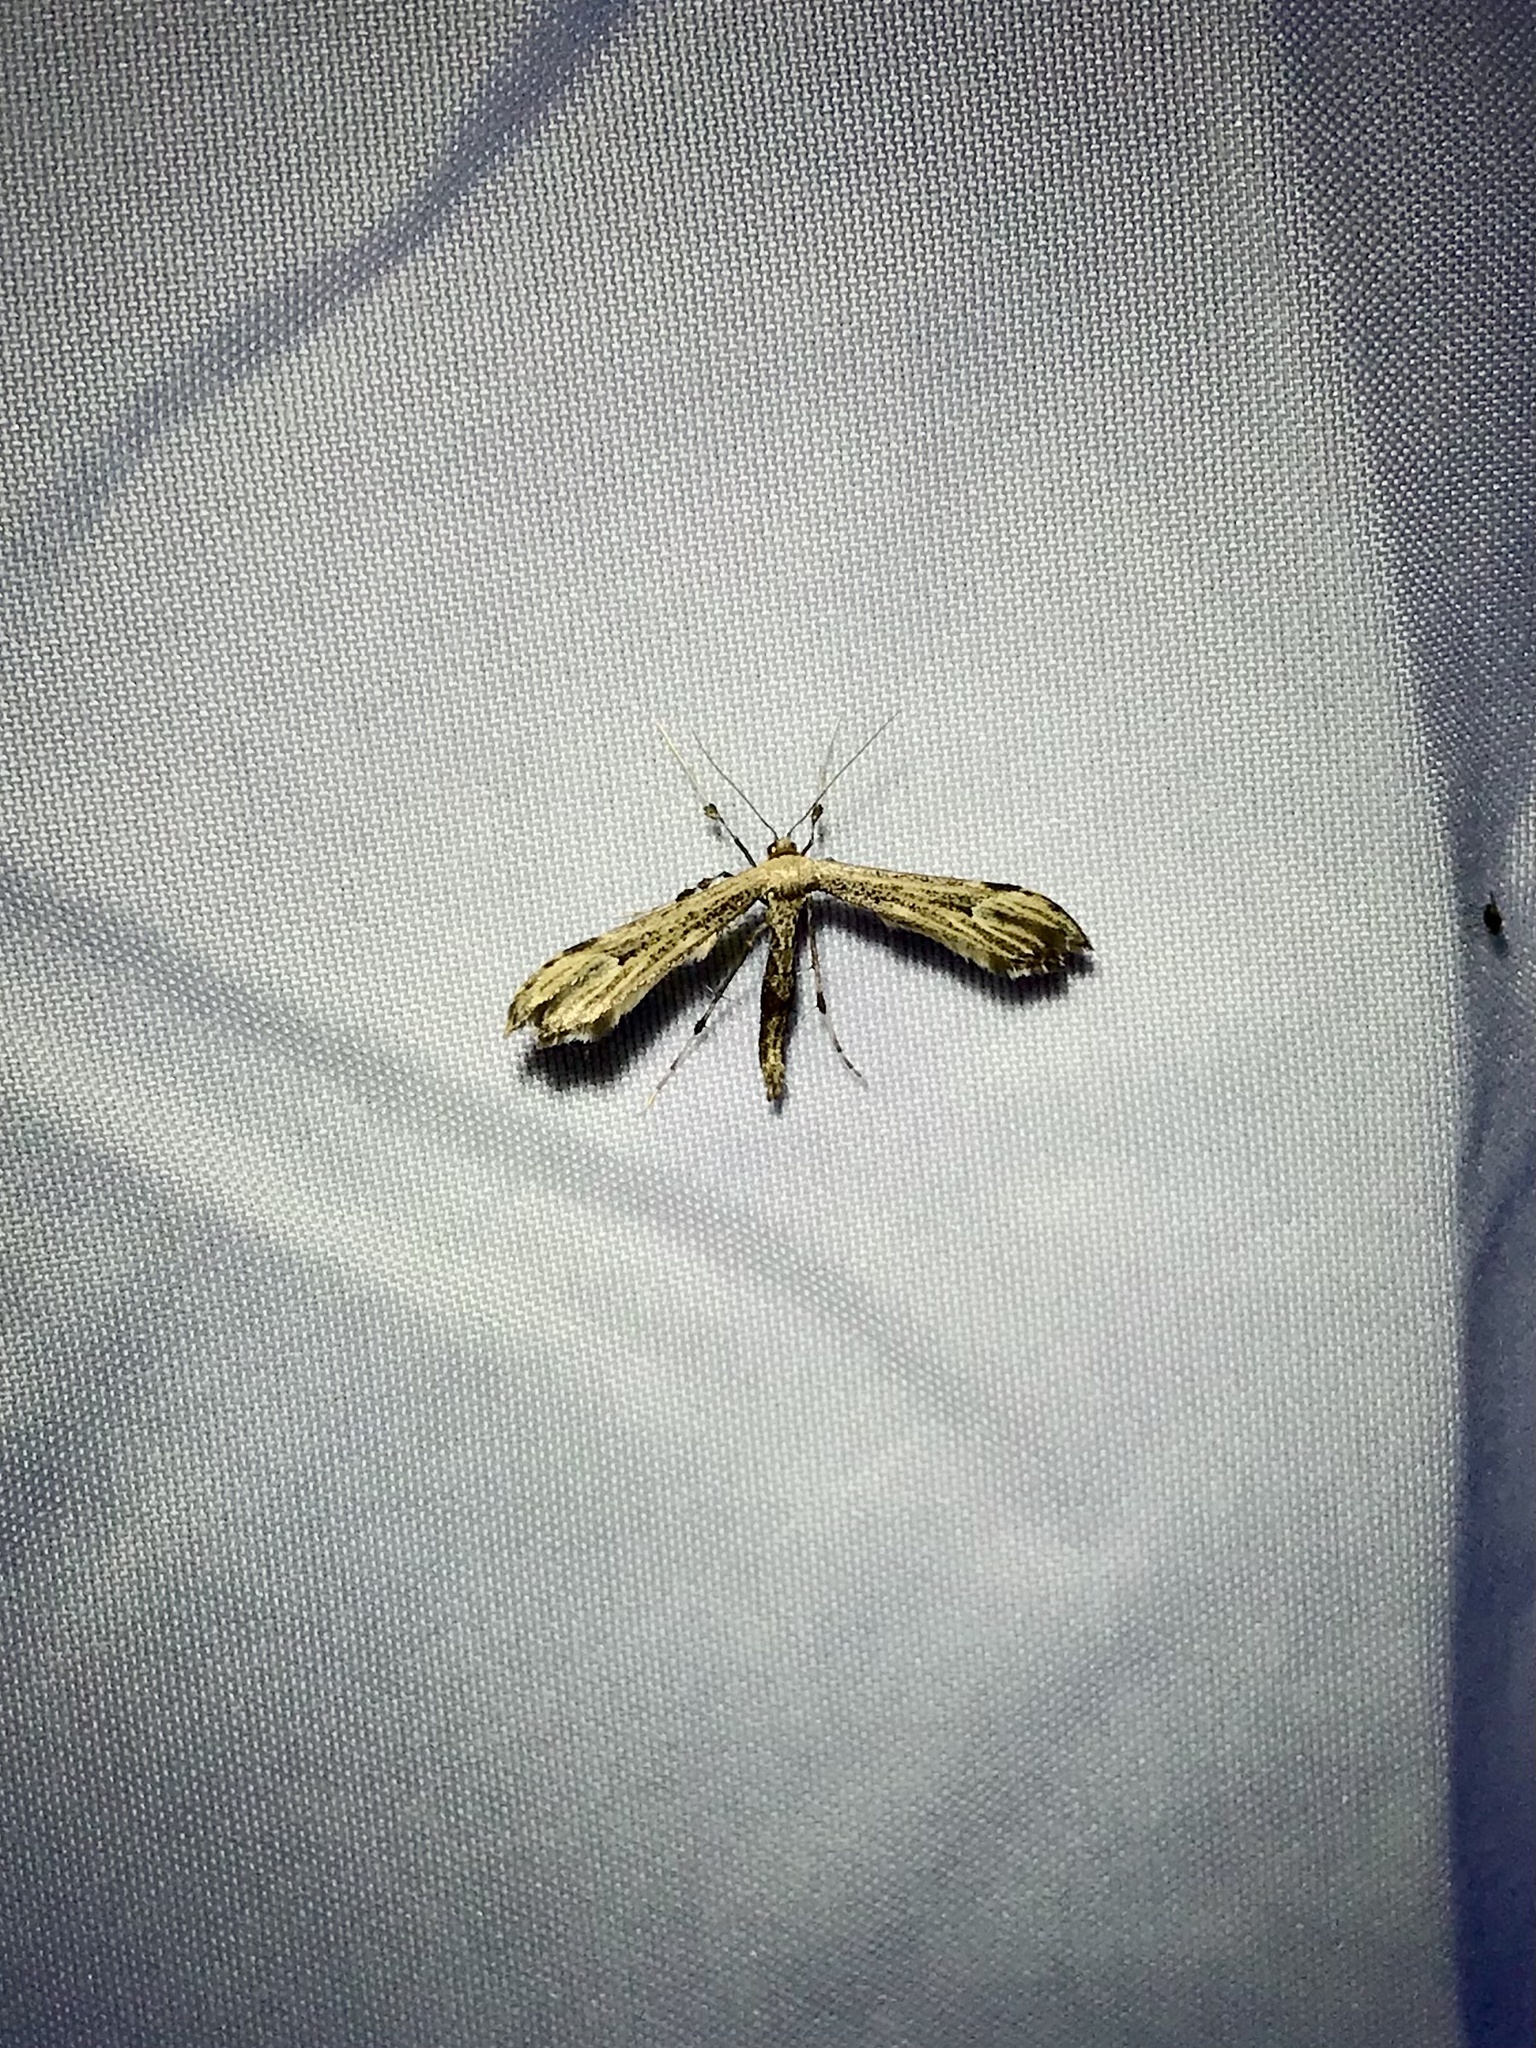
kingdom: Animalia
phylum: Arthropoda
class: Insecta
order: Lepidoptera
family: Pterophoridae
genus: Oidaematophorus
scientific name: Oidaematophorus eupatorii
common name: Eupatorium plume moth
